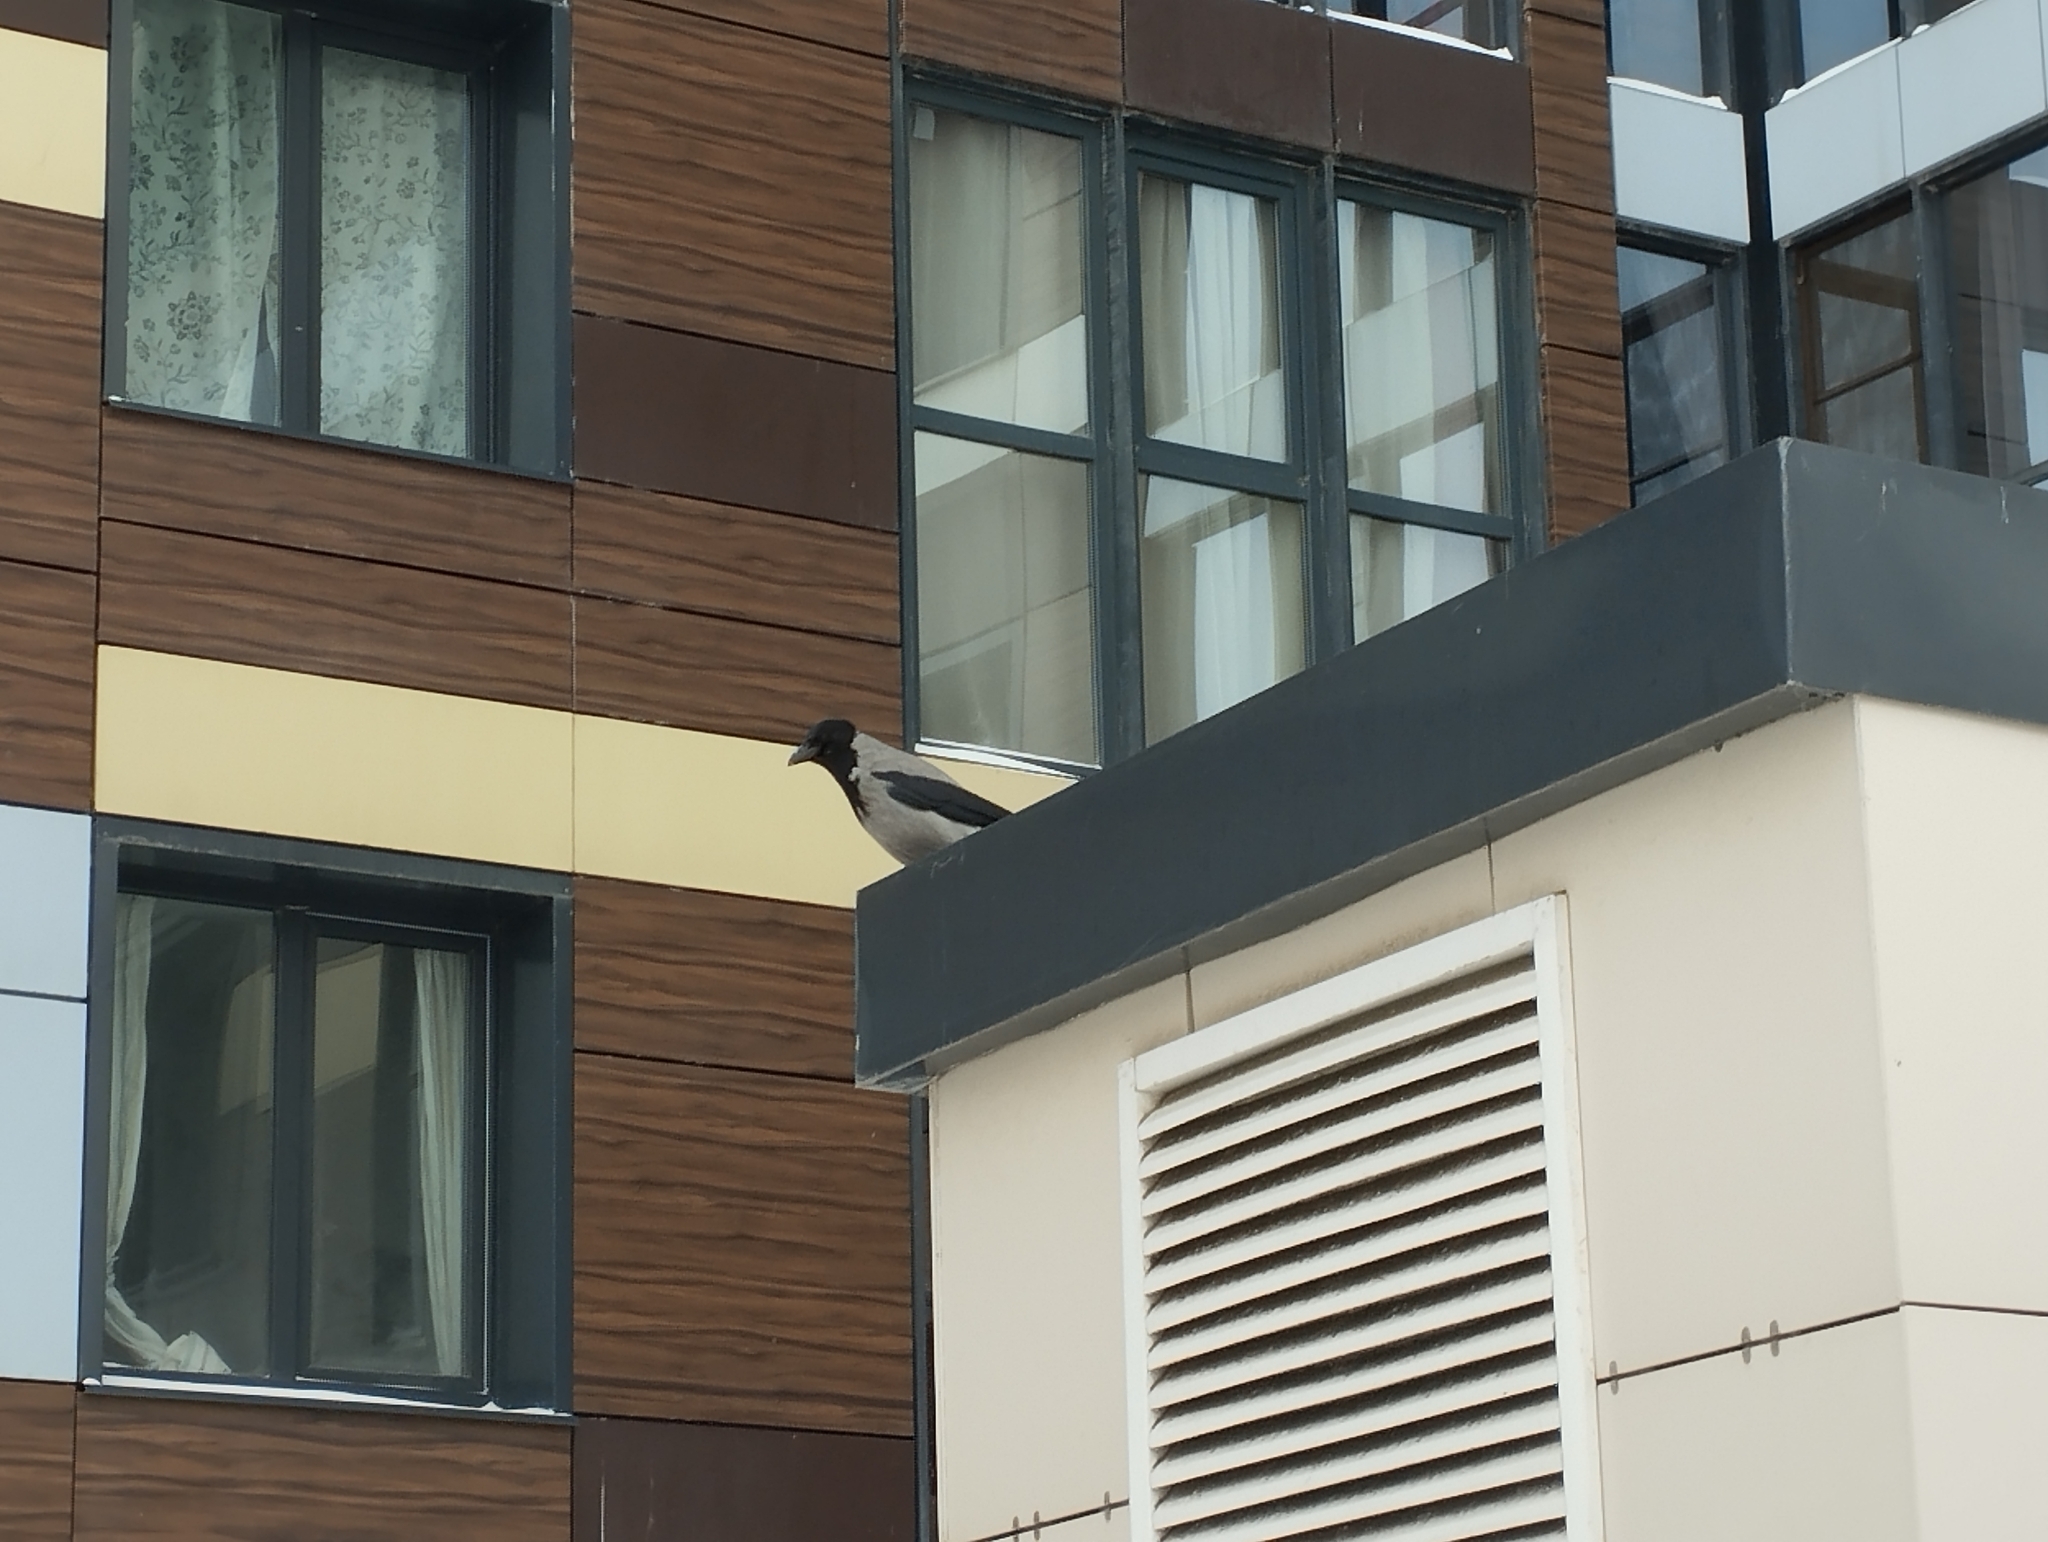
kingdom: Animalia
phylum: Chordata
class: Aves
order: Passeriformes
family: Corvidae
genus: Corvus
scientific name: Corvus cornix
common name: Hooded crow
